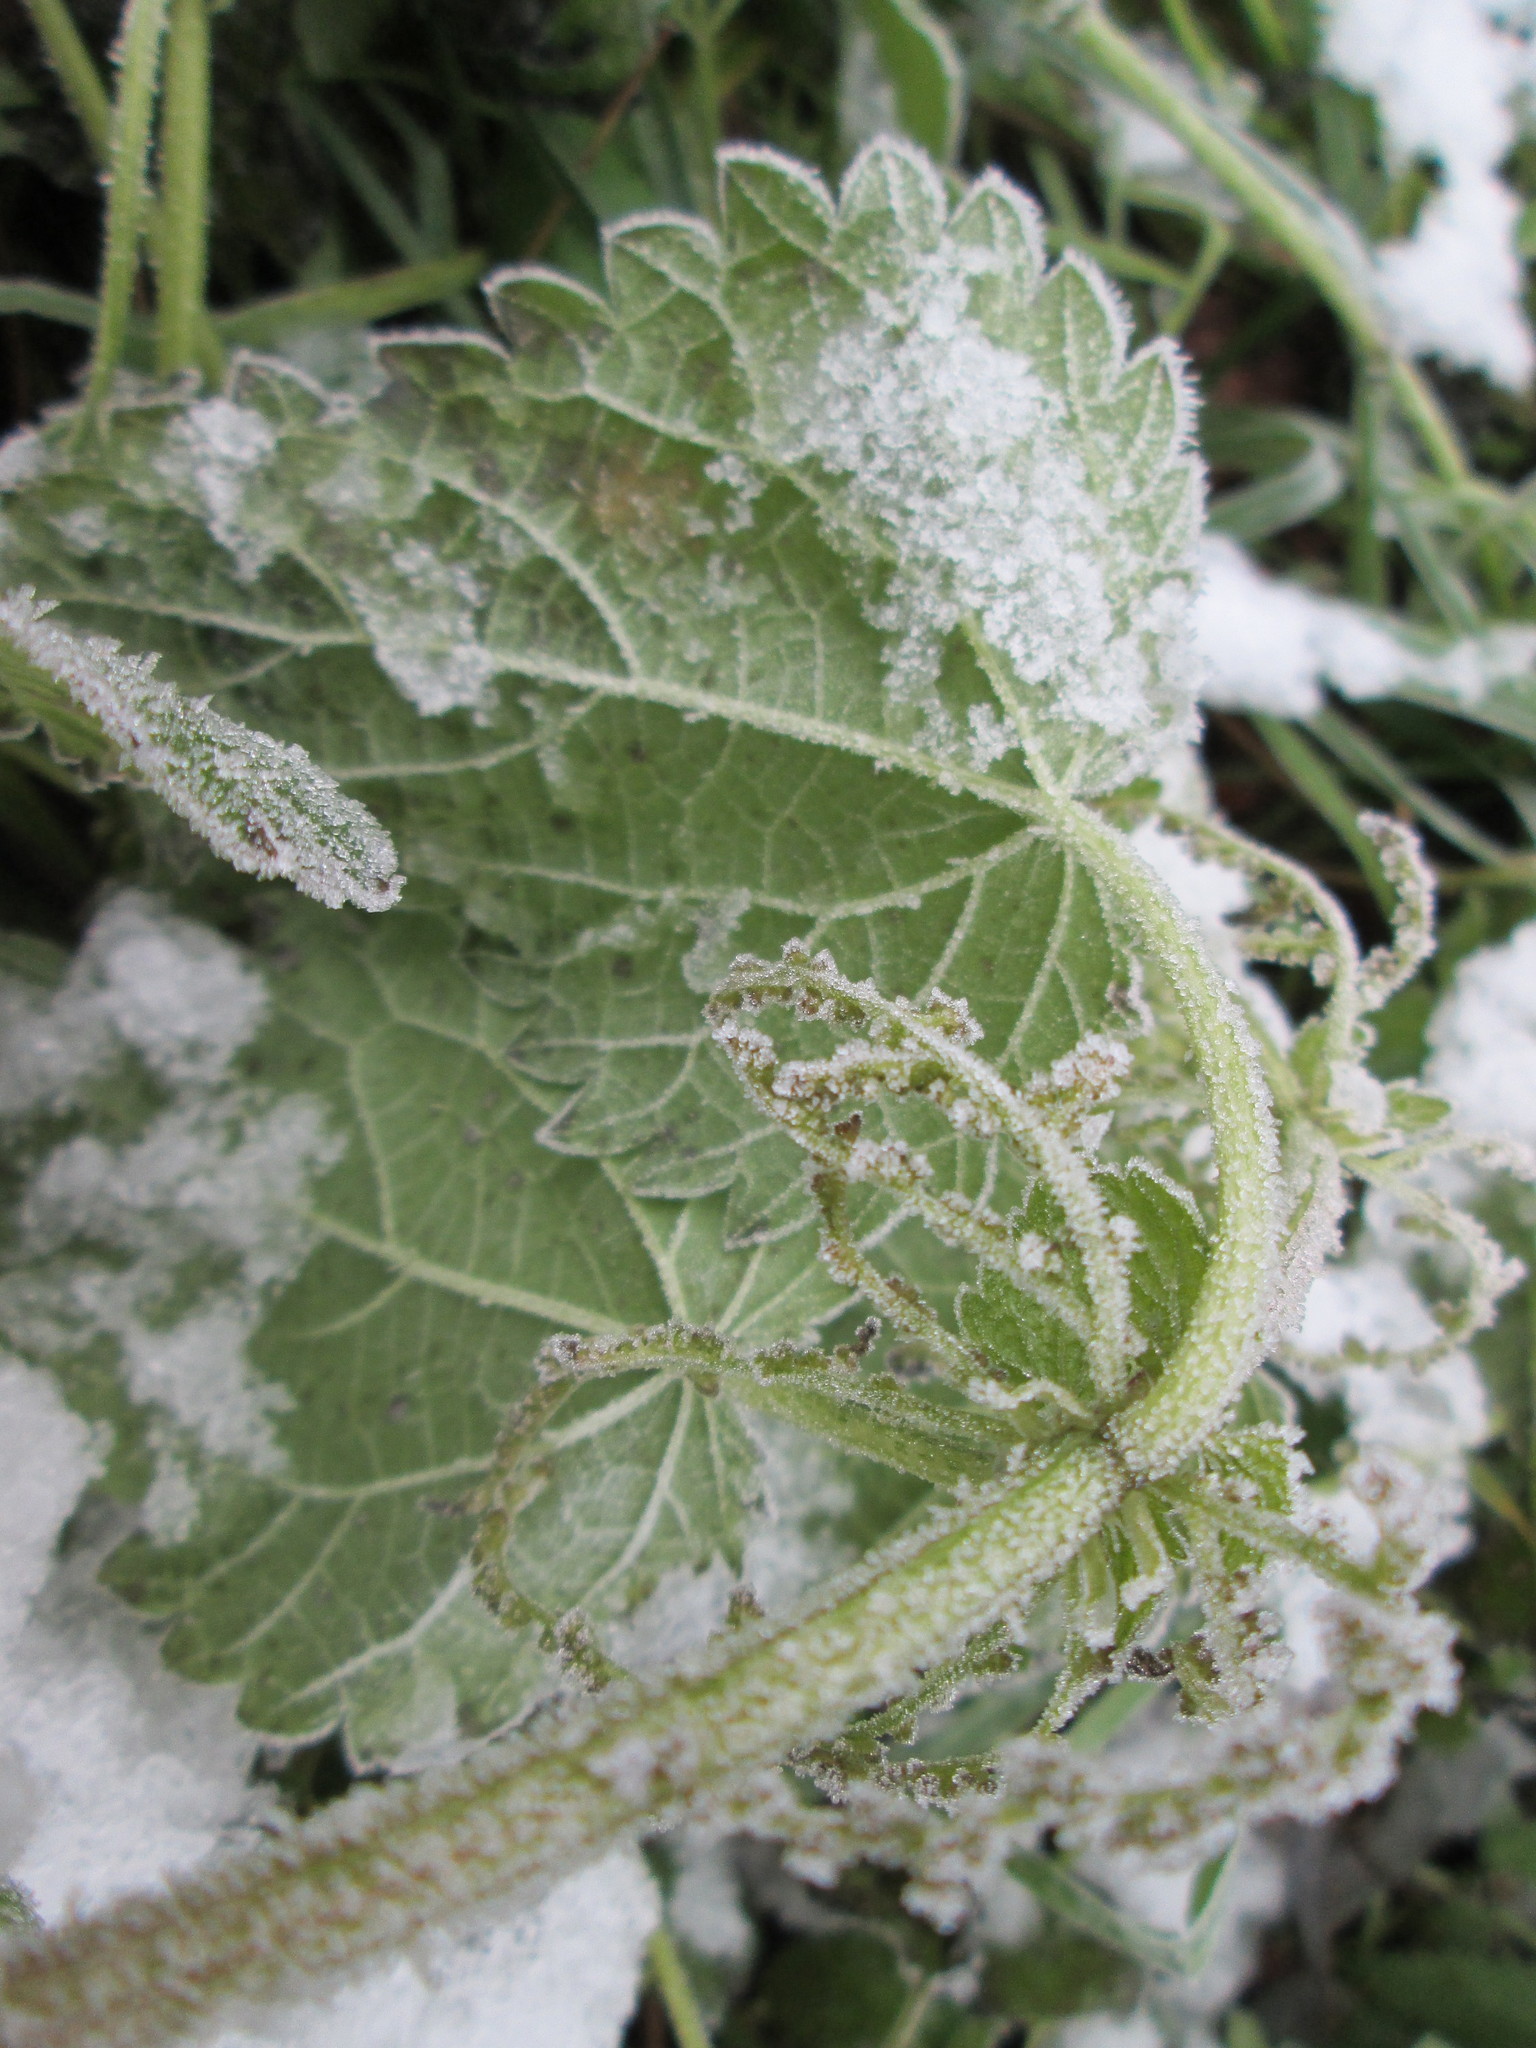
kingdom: Plantae
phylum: Tracheophyta
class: Magnoliopsida
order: Rosales
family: Urticaceae
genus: Urtica
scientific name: Urtica dioica
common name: Common nettle
